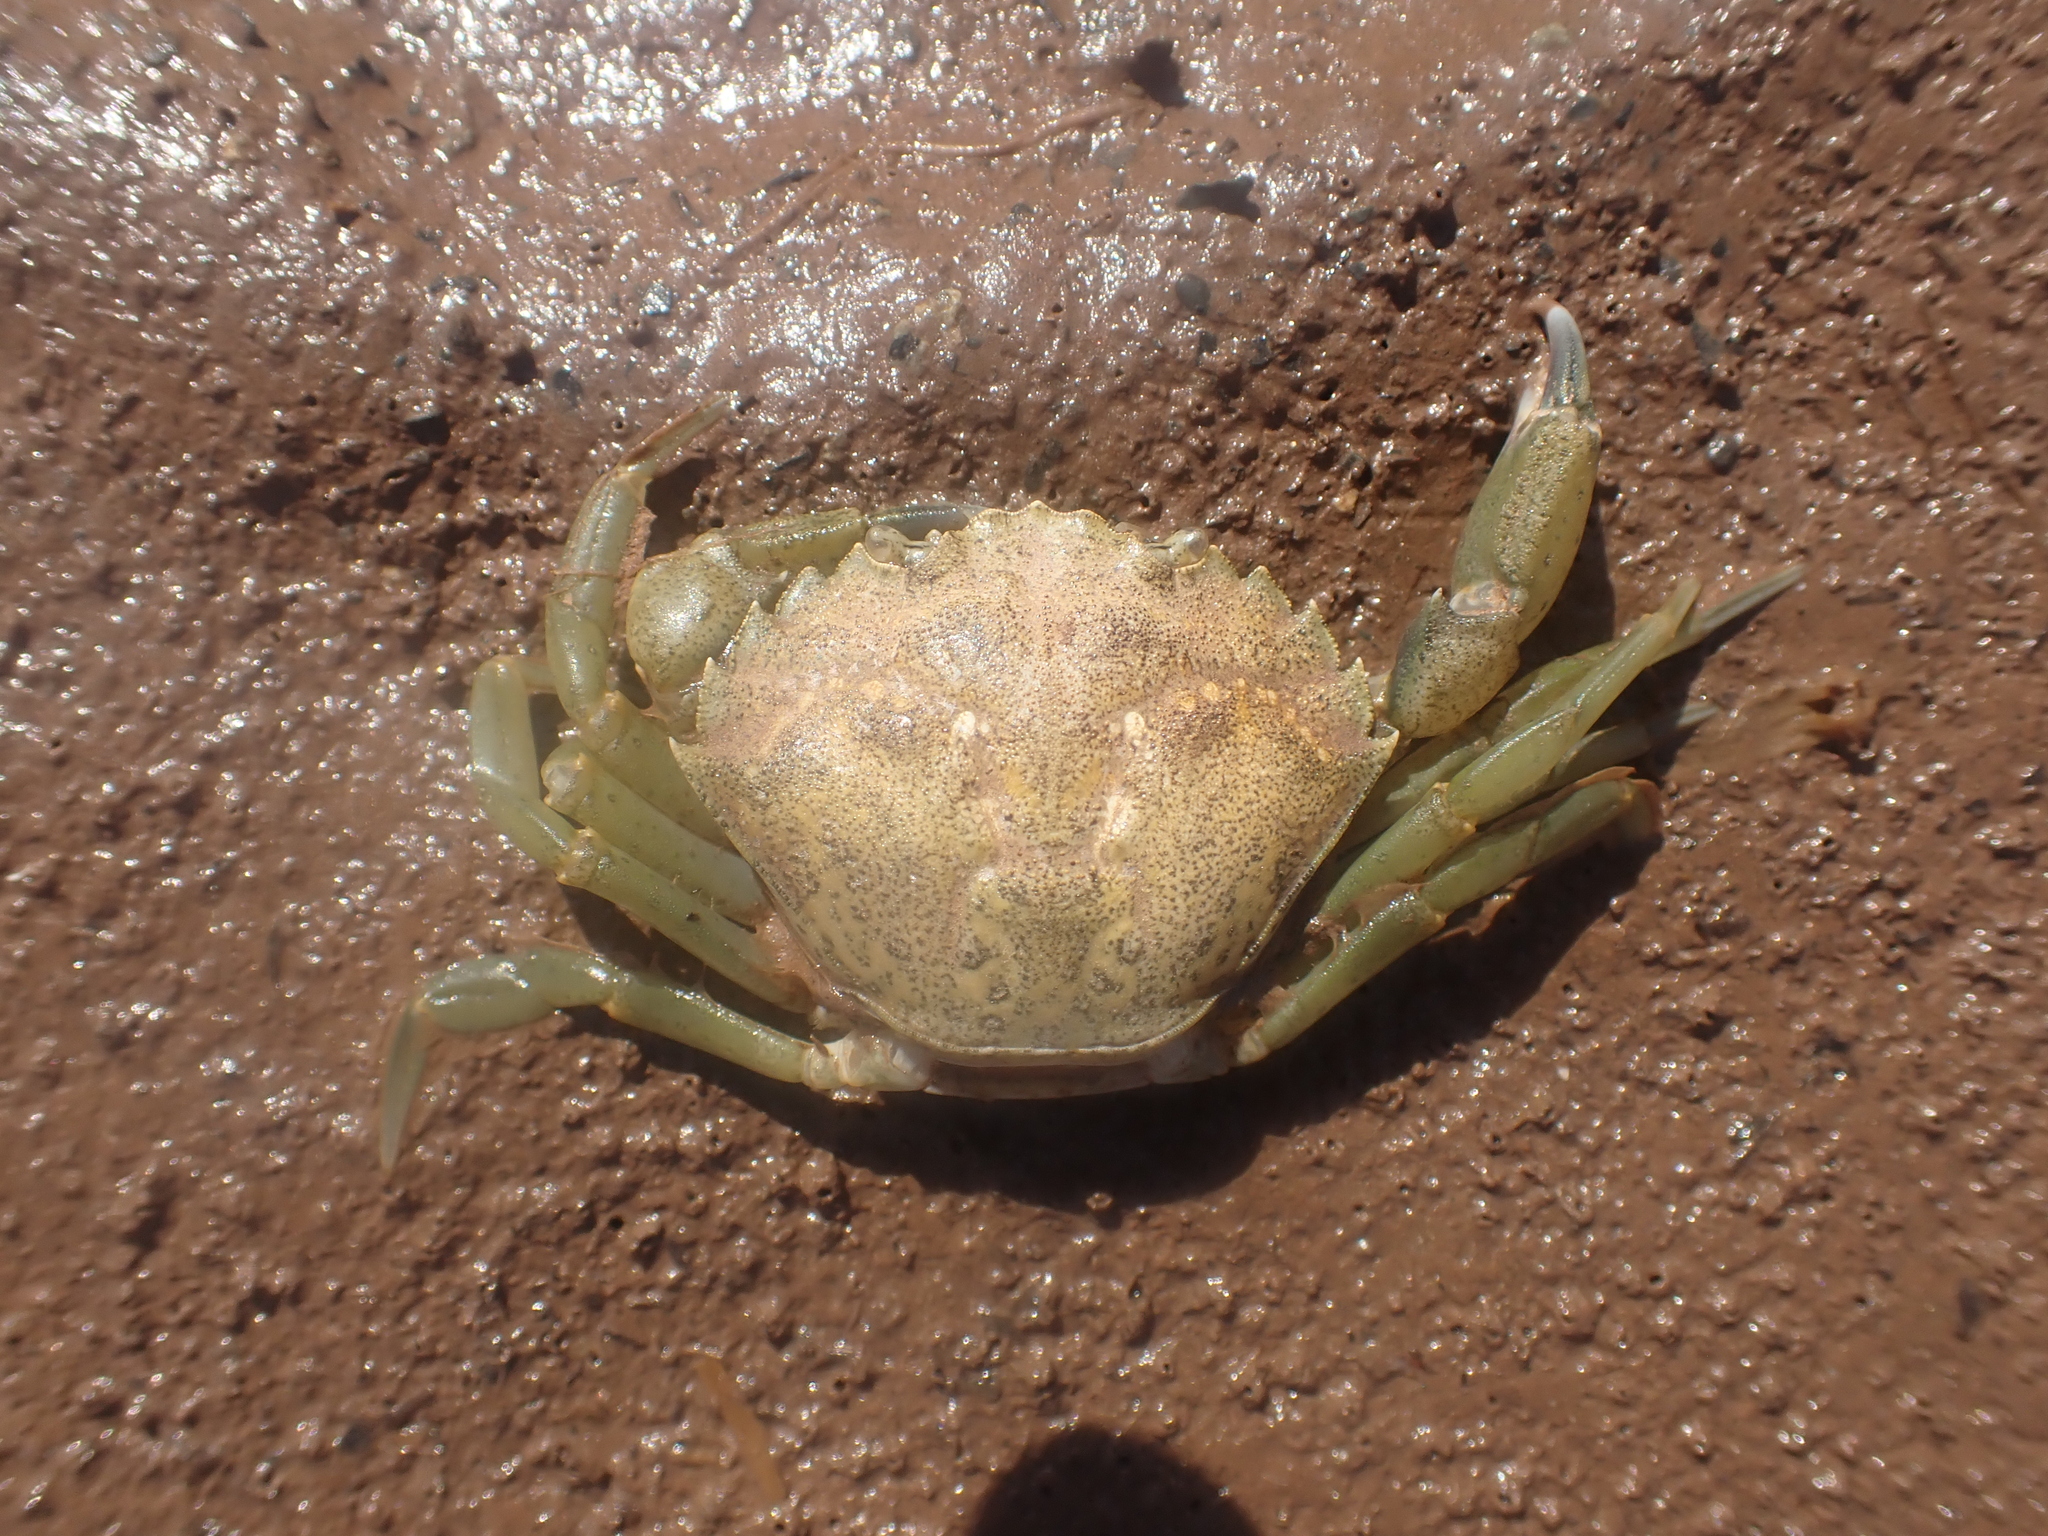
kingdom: Animalia
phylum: Arthropoda
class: Malacostraca
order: Decapoda
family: Carcinidae
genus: Carcinus
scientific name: Carcinus maenas
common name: European green crab
